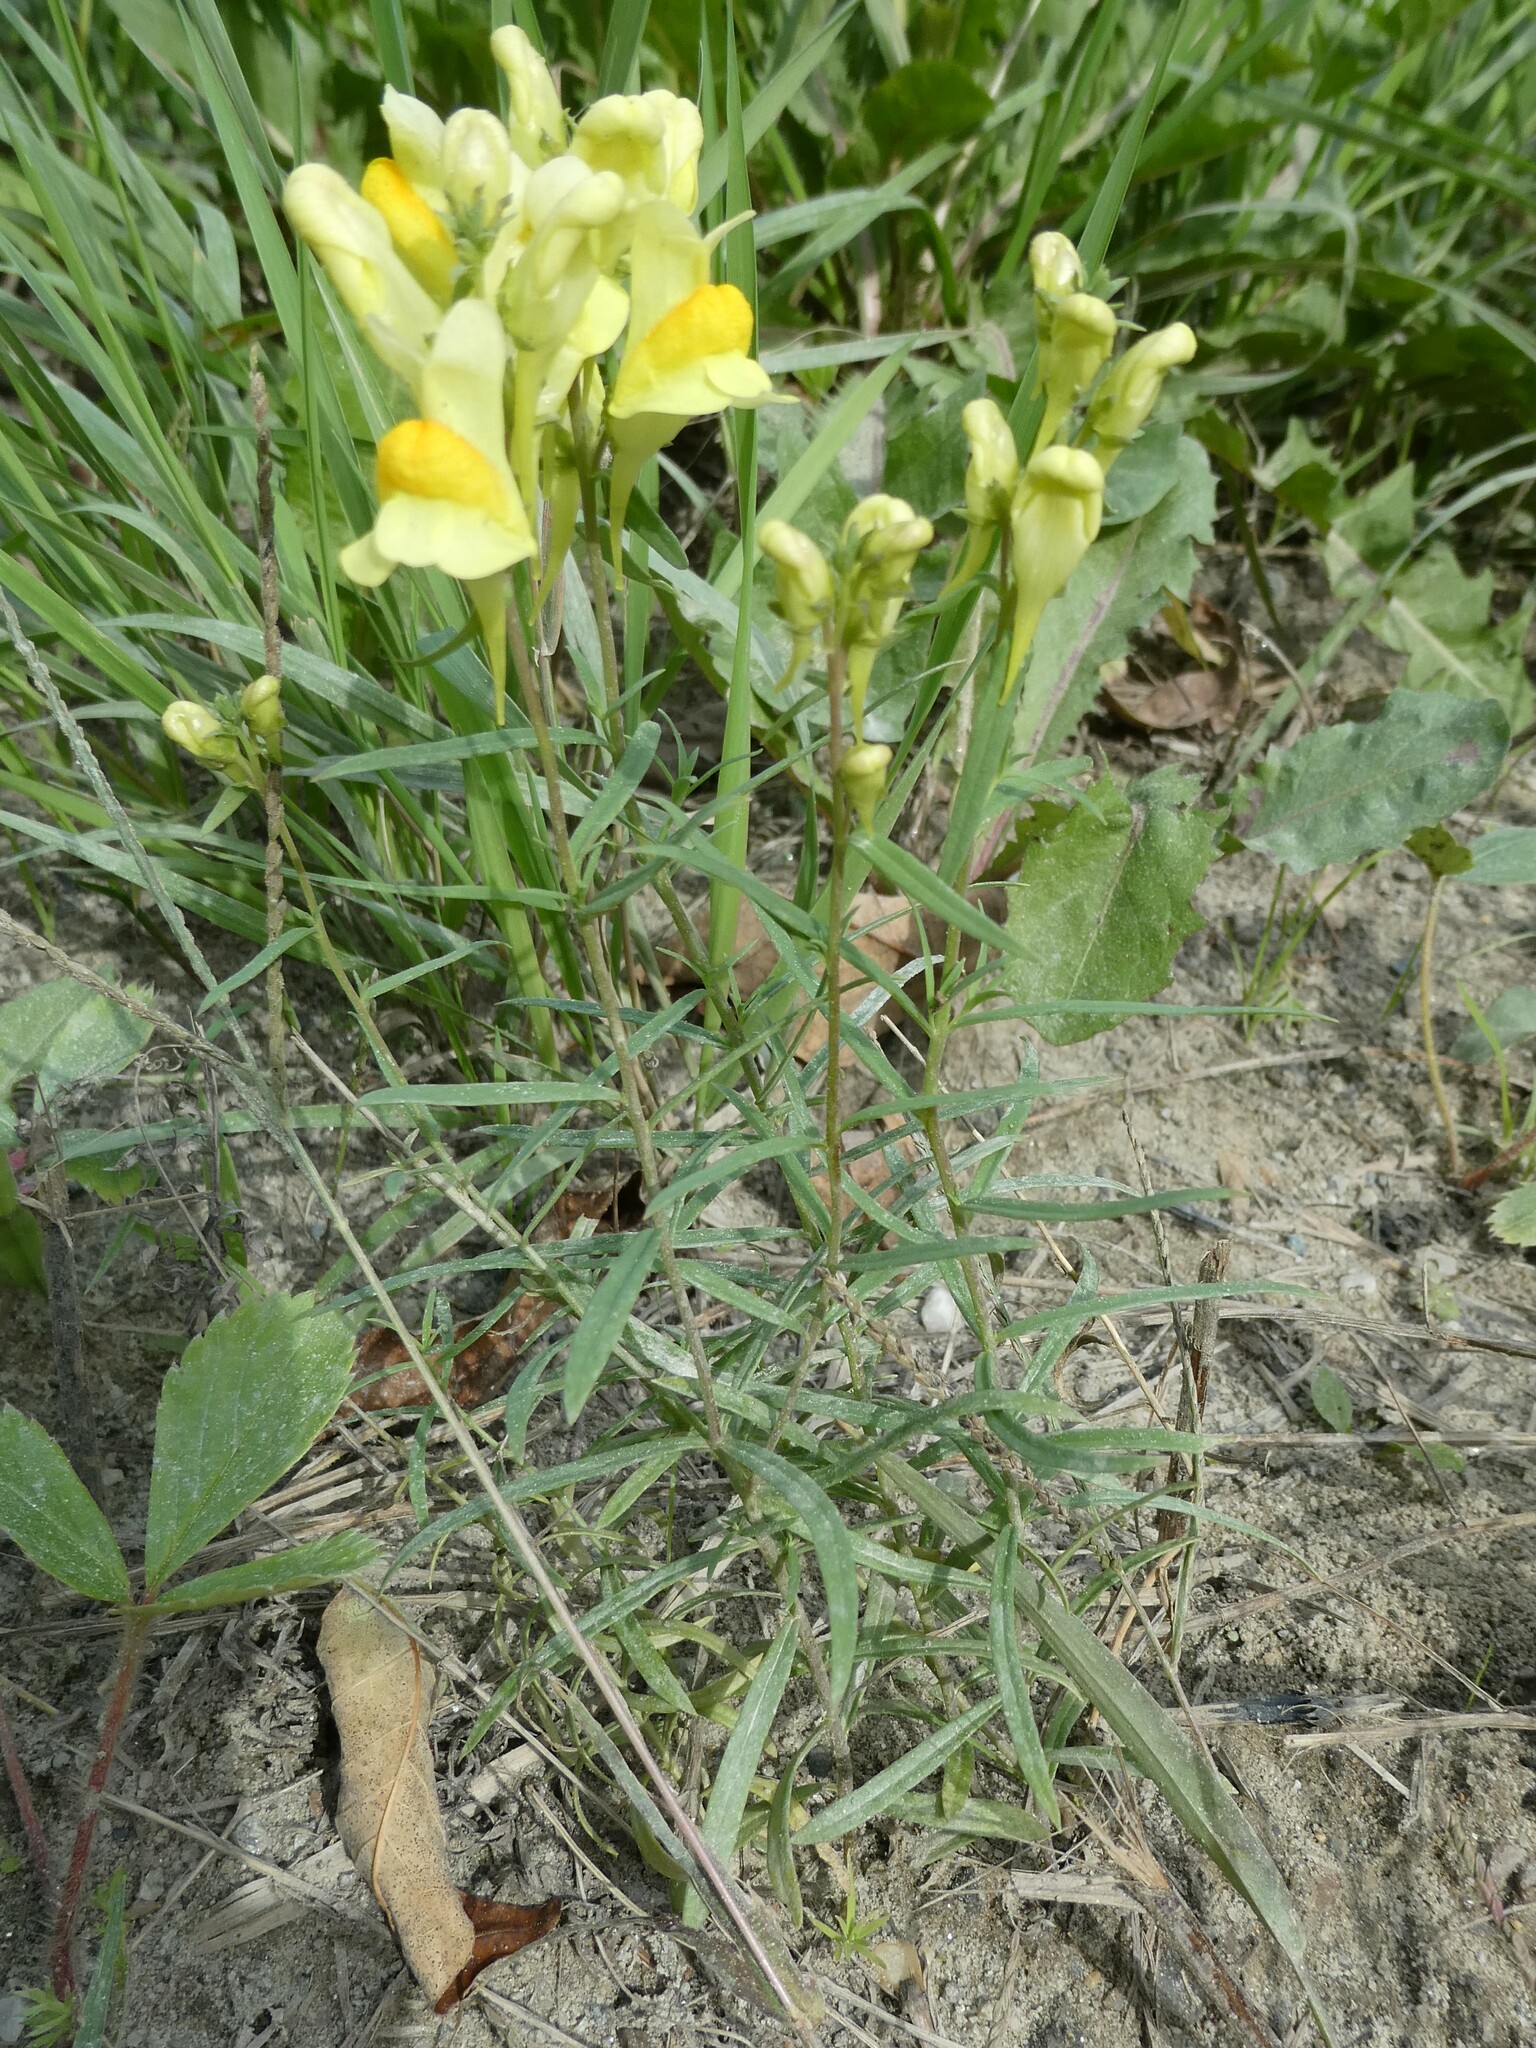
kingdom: Plantae
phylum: Tracheophyta
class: Magnoliopsida
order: Lamiales
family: Plantaginaceae
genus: Linaria
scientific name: Linaria vulgaris
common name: Butter and eggs
